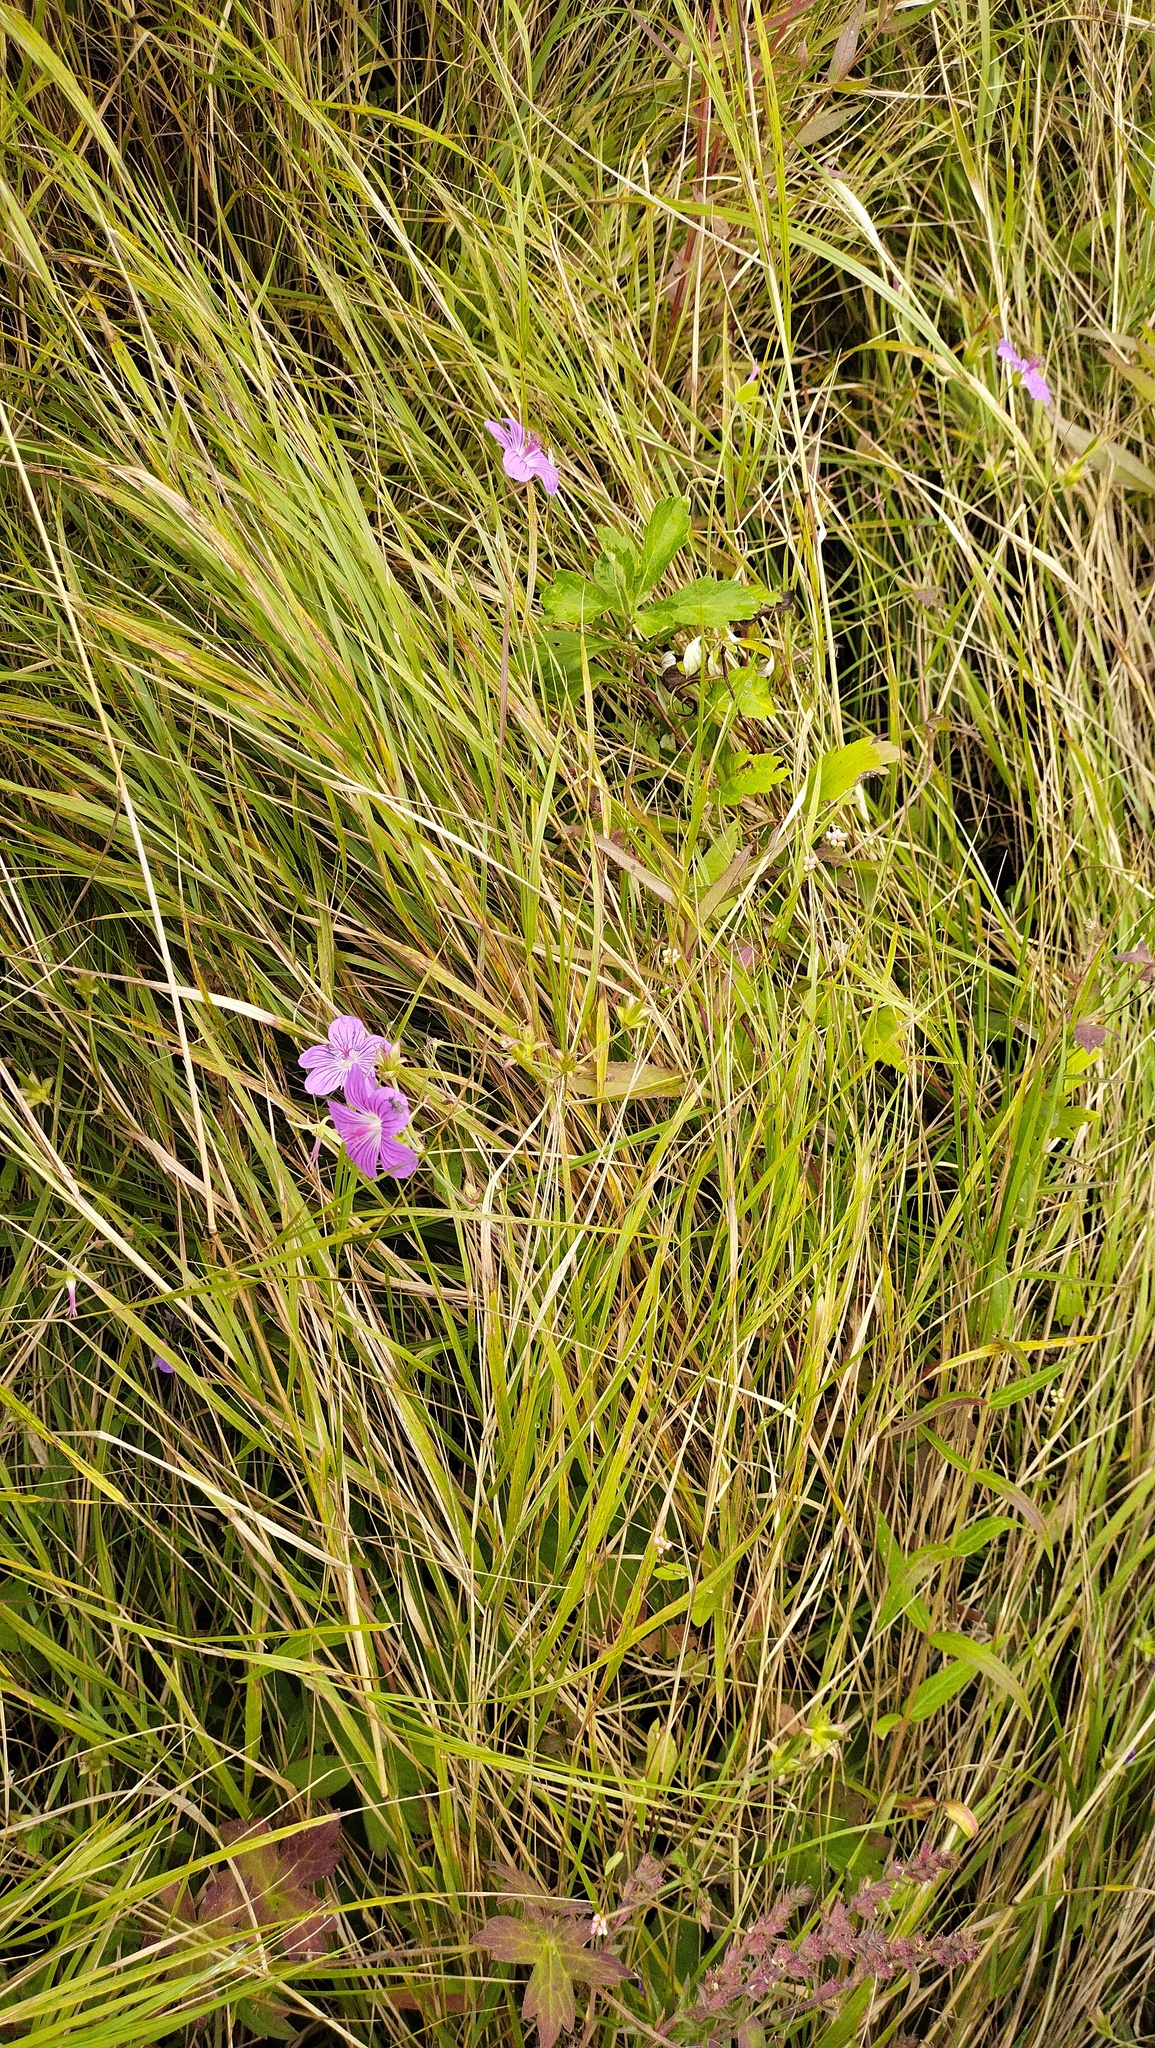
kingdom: Plantae
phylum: Tracheophyta
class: Magnoliopsida
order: Geraniales
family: Geraniaceae
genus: Geranium
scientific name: Geranium wlassovianum
